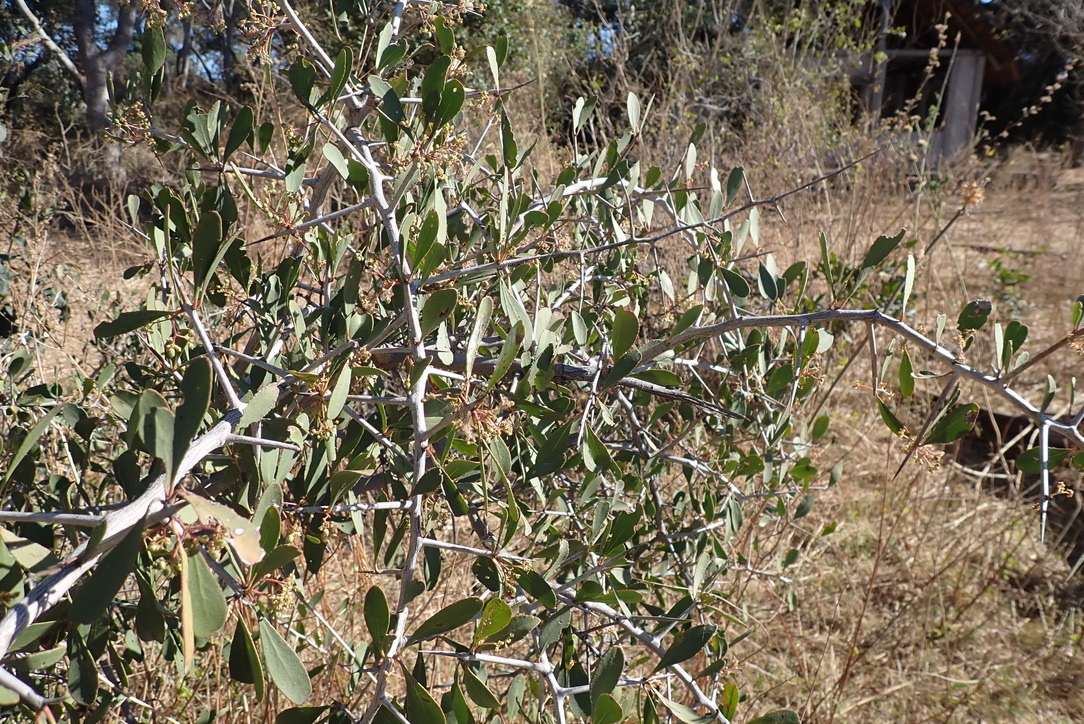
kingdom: Plantae
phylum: Tracheophyta
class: Magnoliopsida
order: Celastrales
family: Celastraceae
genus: Gymnosporia
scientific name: Gymnosporia senegalensis
